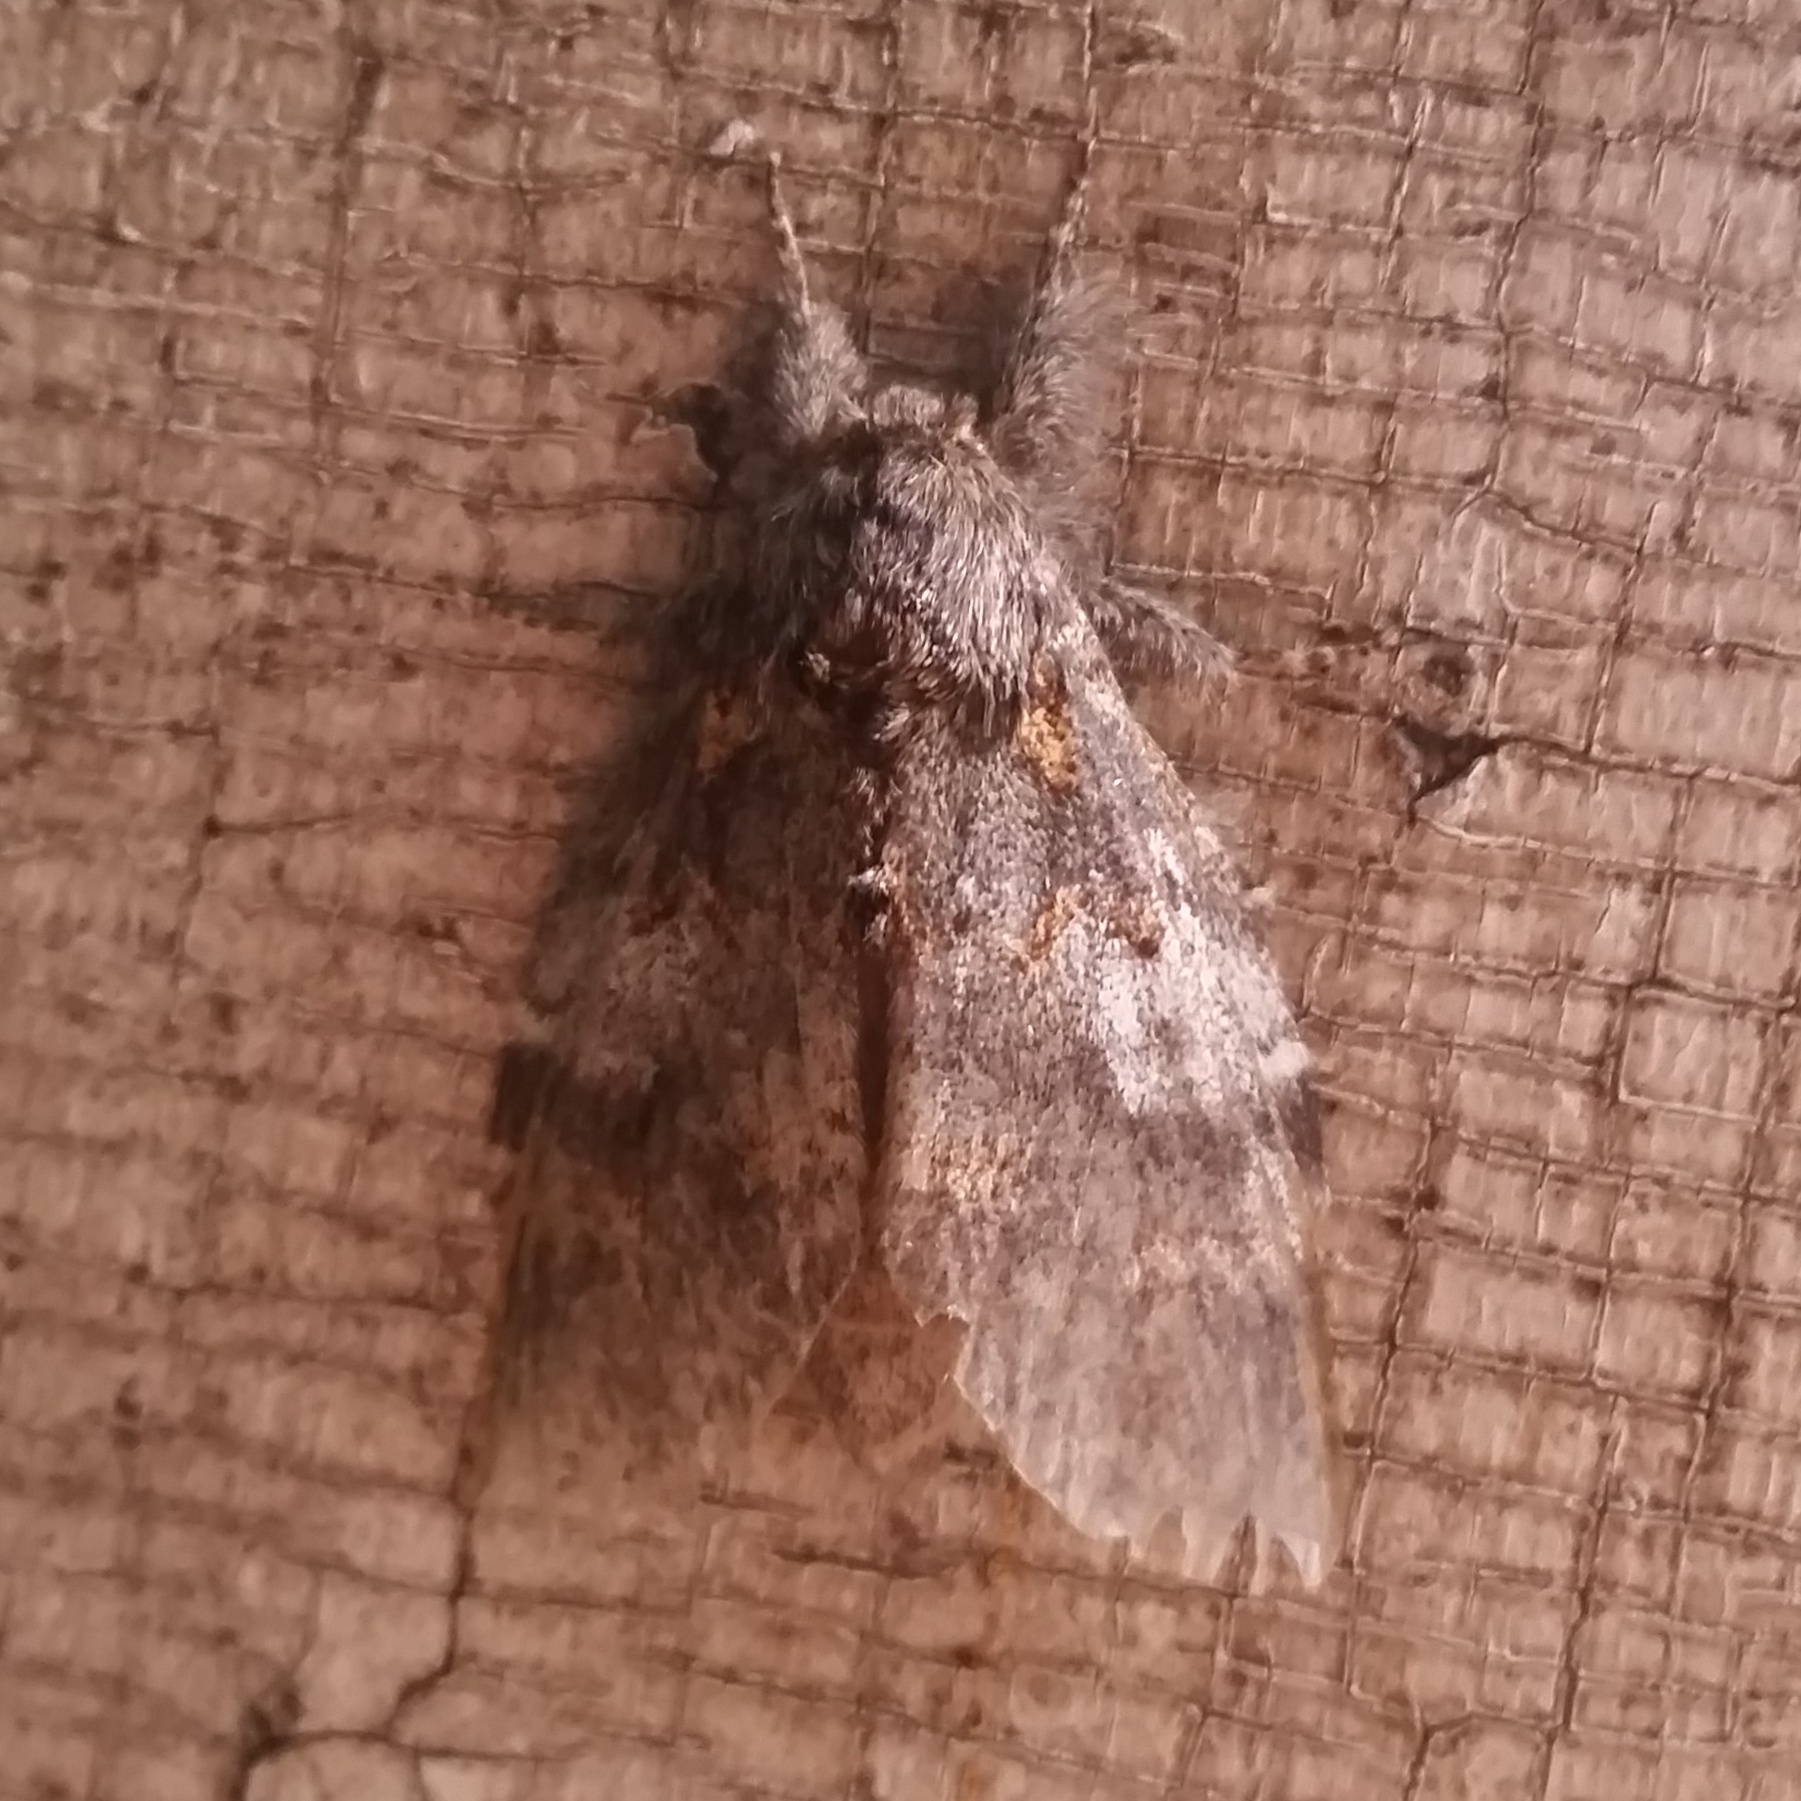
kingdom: Animalia
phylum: Arthropoda
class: Insecta
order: Lepidoptera
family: Notodontidae
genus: Peridea
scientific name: Peridea angulosa
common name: Angulose prominent
